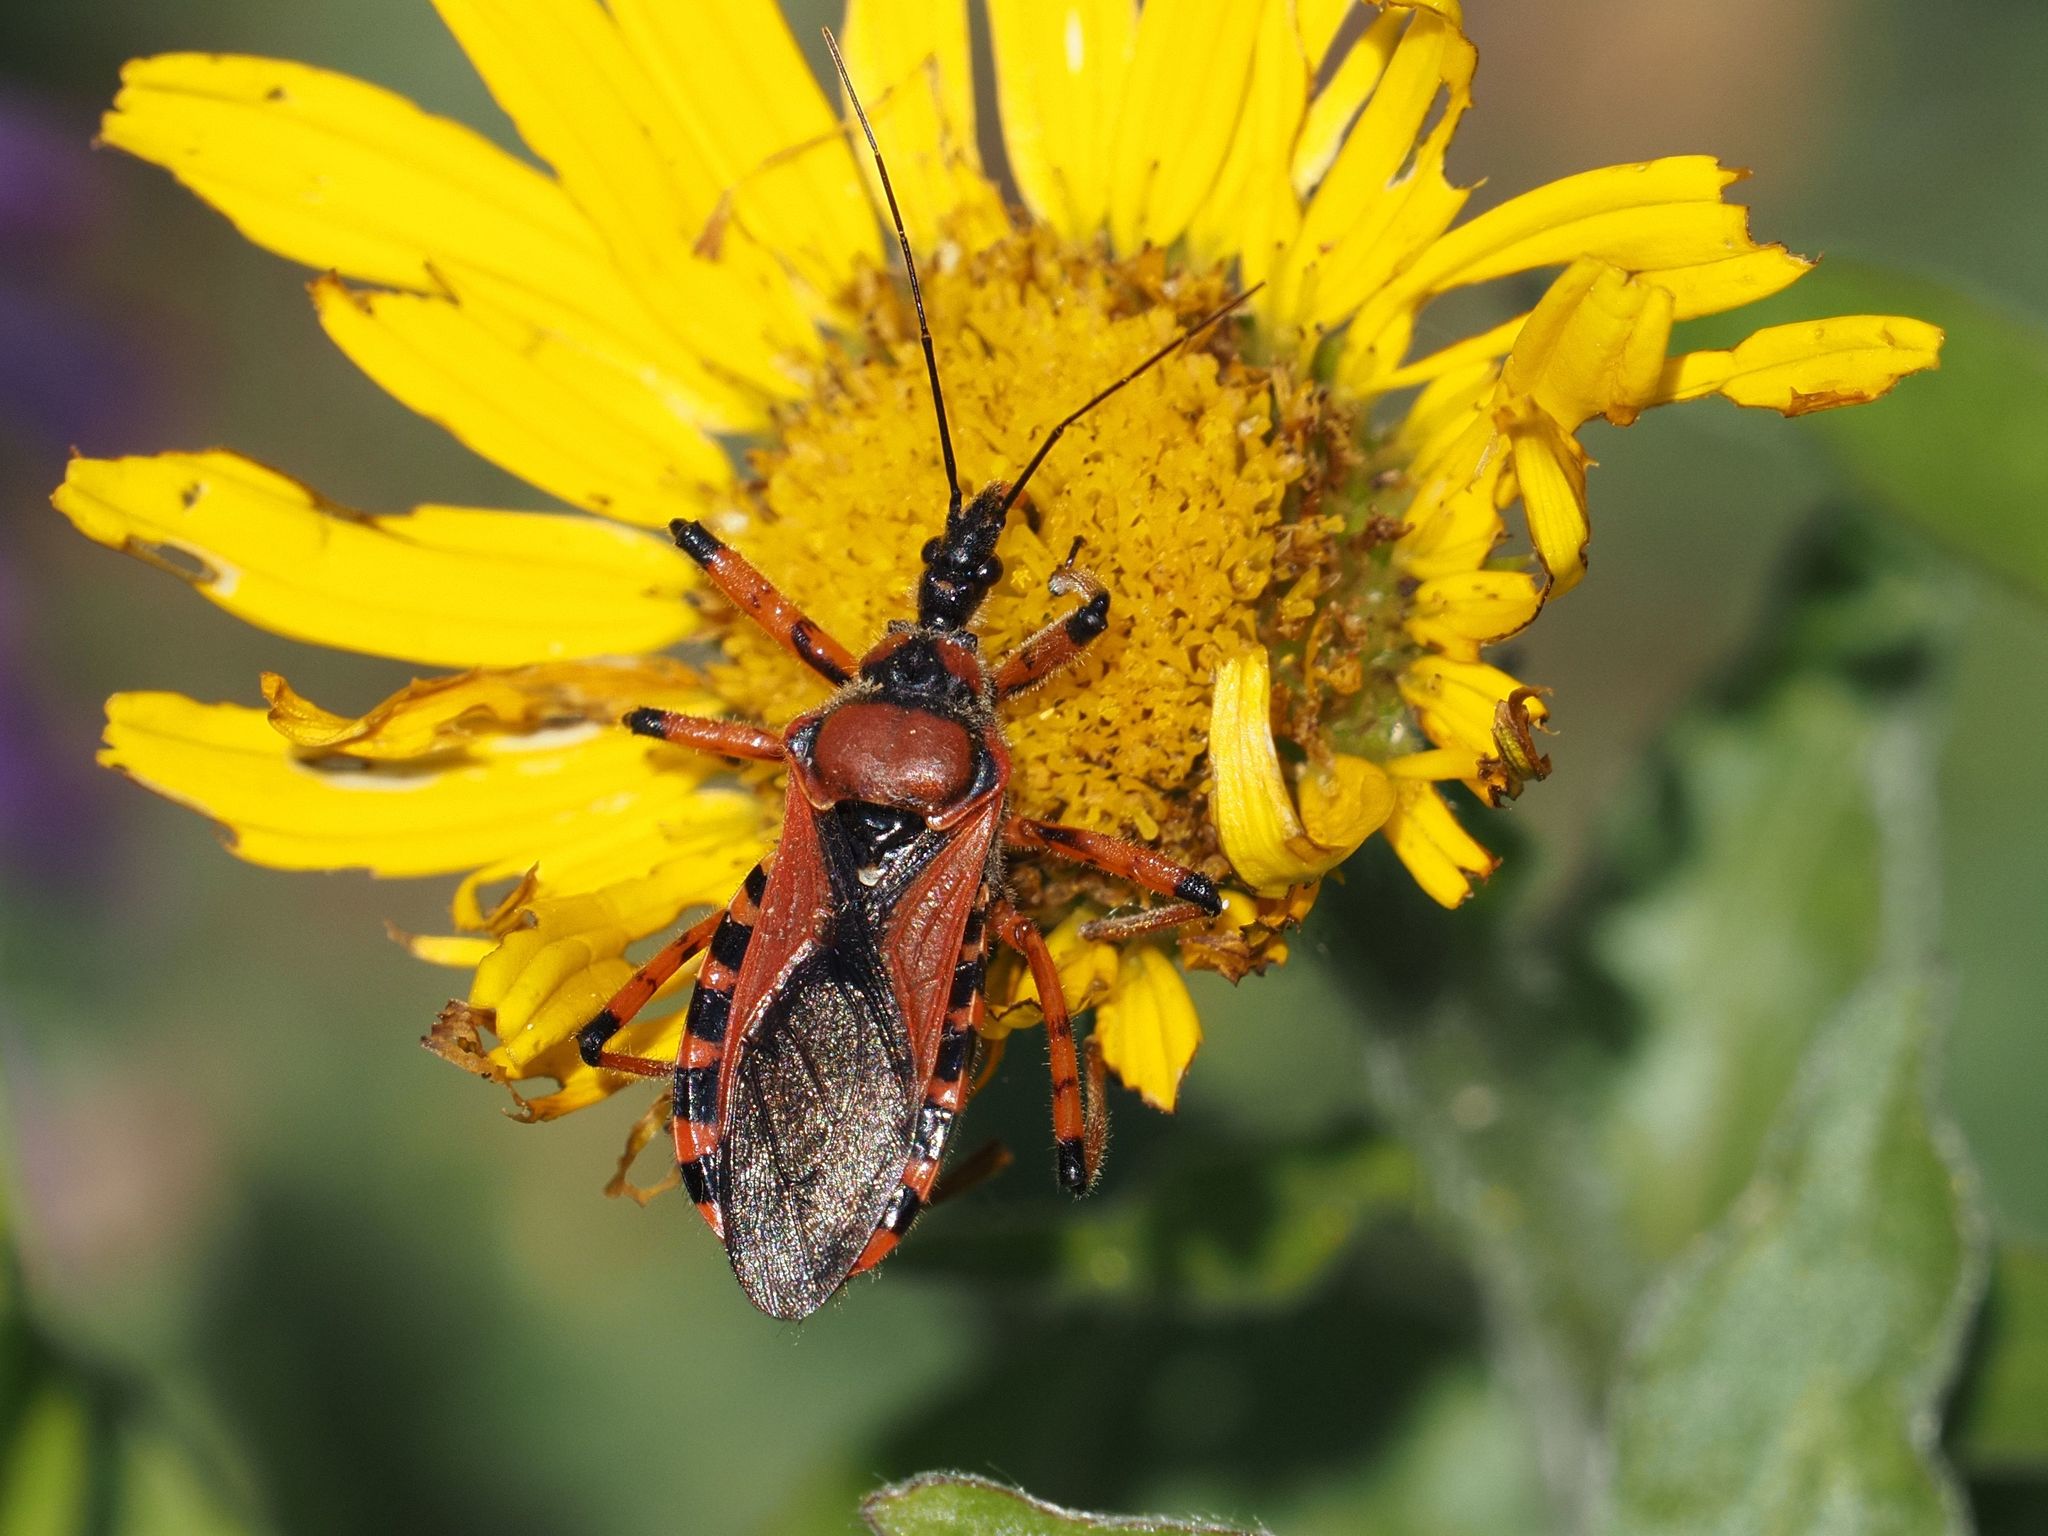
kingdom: Animalia
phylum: Arthropoda
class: Insecta
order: Hemiptera
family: Reduviidae
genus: Rhynocoris
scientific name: Rhynocoris iracundus
